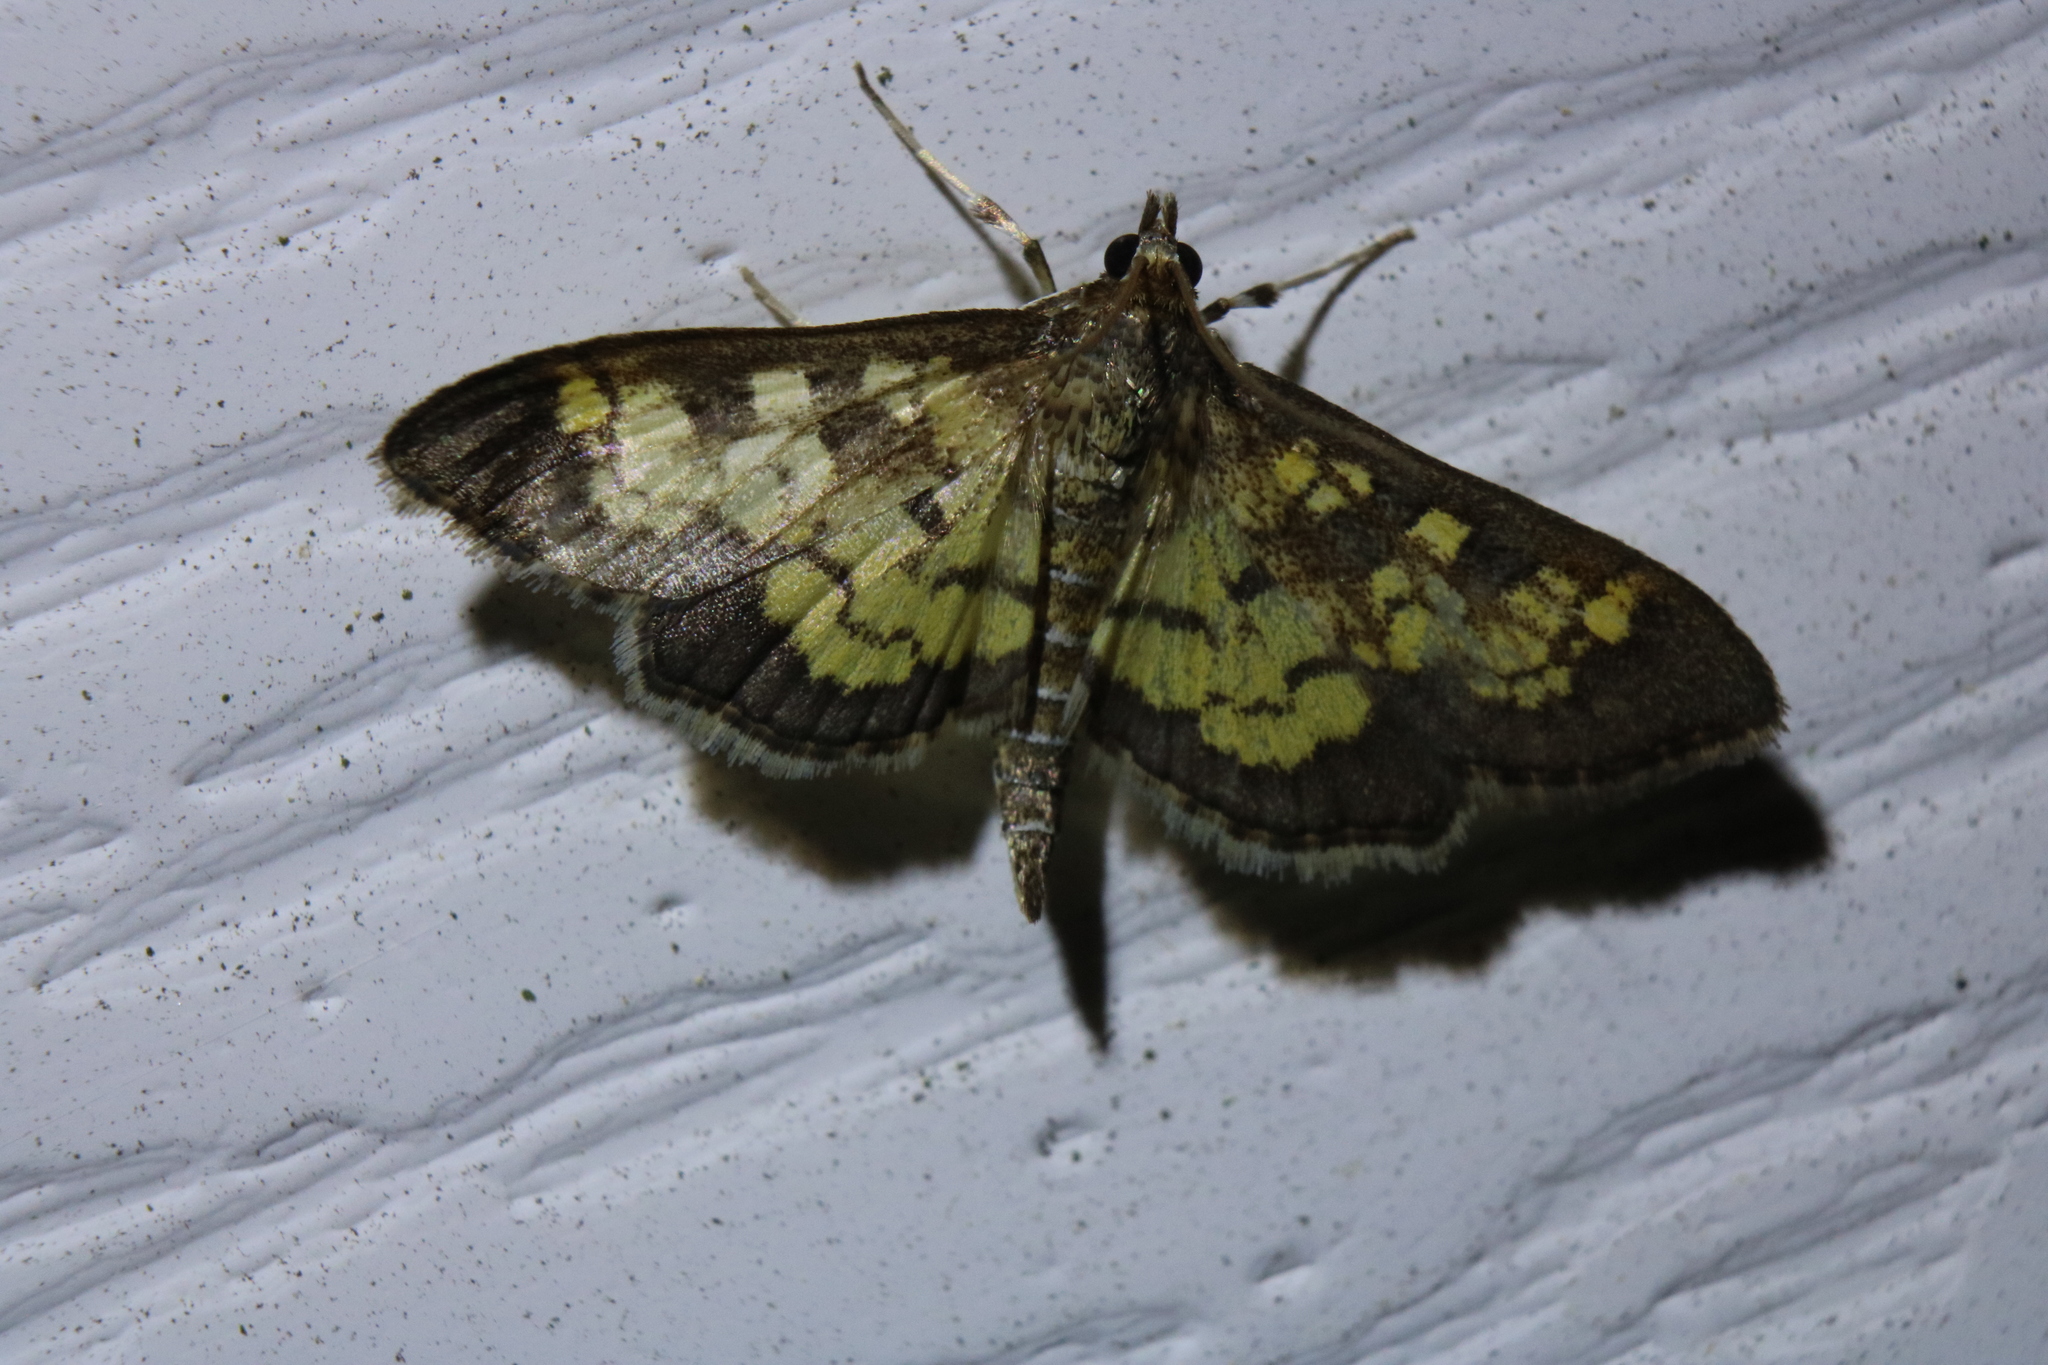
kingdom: Animalia
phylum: Arthropoda
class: Insecta
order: Lepidoptera
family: Crambidae
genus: Epipagis
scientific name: Epipagis adipaloides
